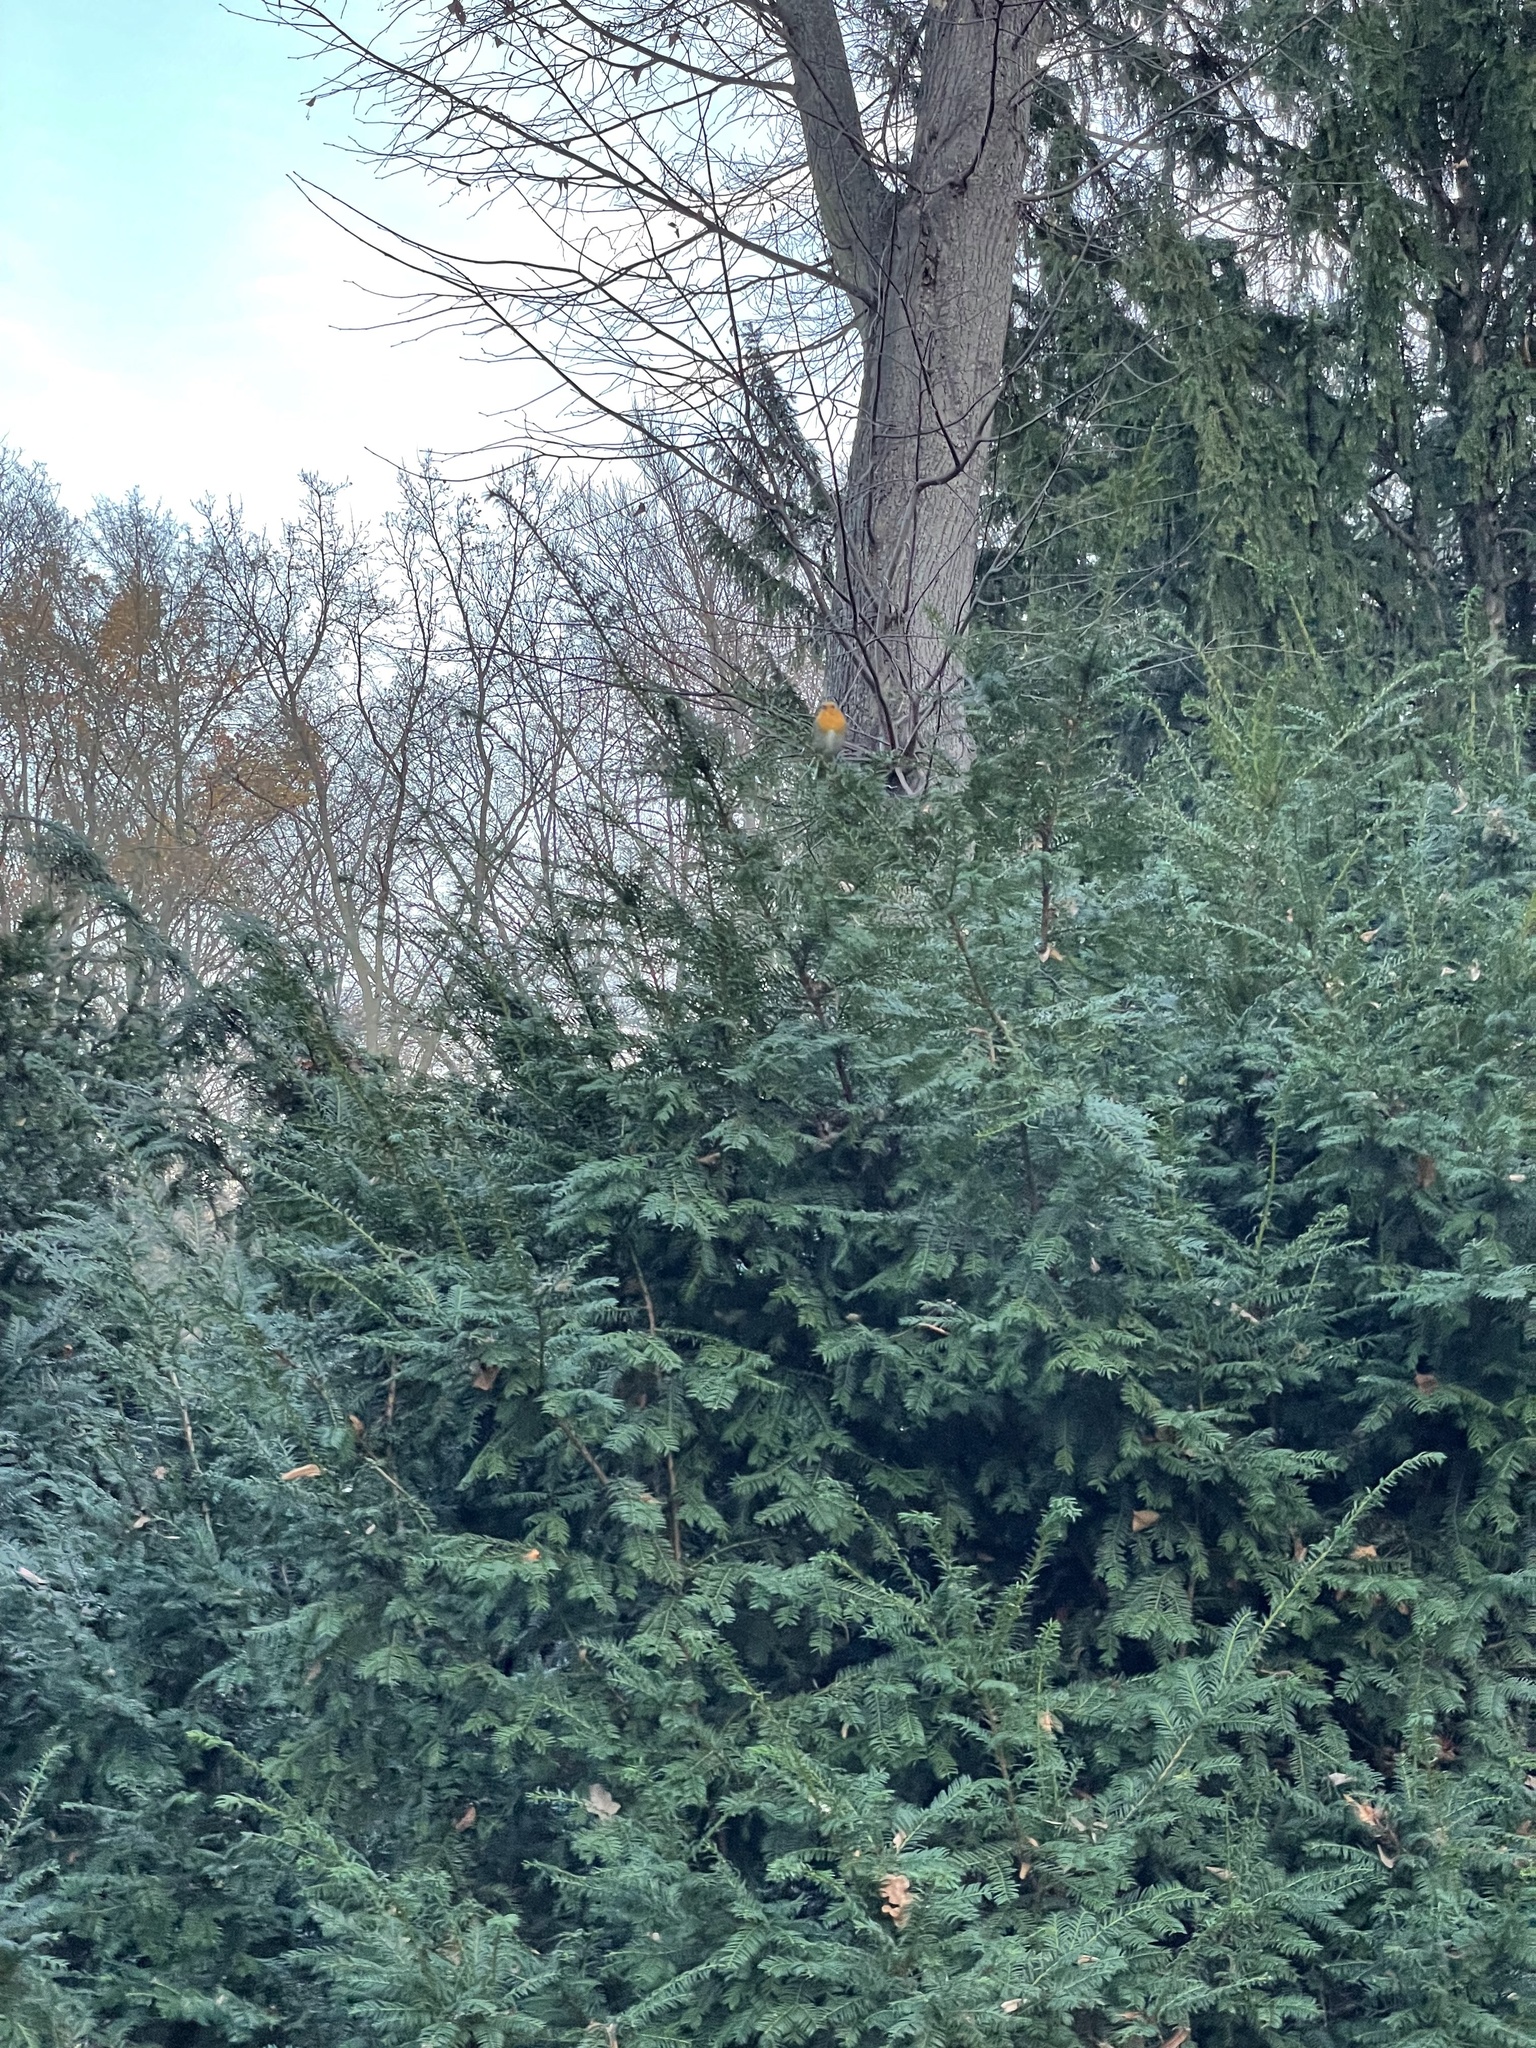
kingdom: Animalia
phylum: Chordata
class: Aves
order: Passeriformes
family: Muscicapidae
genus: Erithacus
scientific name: Erithacus rubecula
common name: European robin
